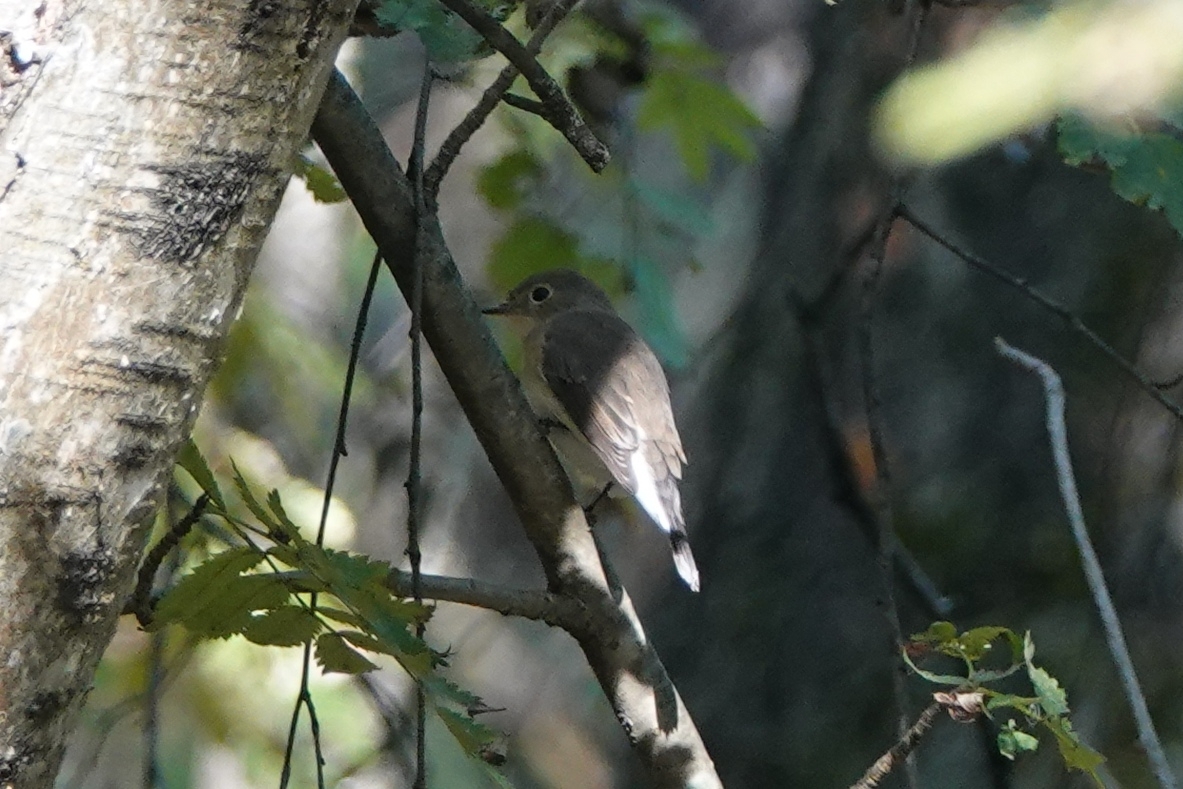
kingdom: Animalia
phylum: Chordata
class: Aves
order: Passeriformes
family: Muscicapidae
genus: Ficedula
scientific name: Ficedula parva
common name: Red-breasted flycatcher
